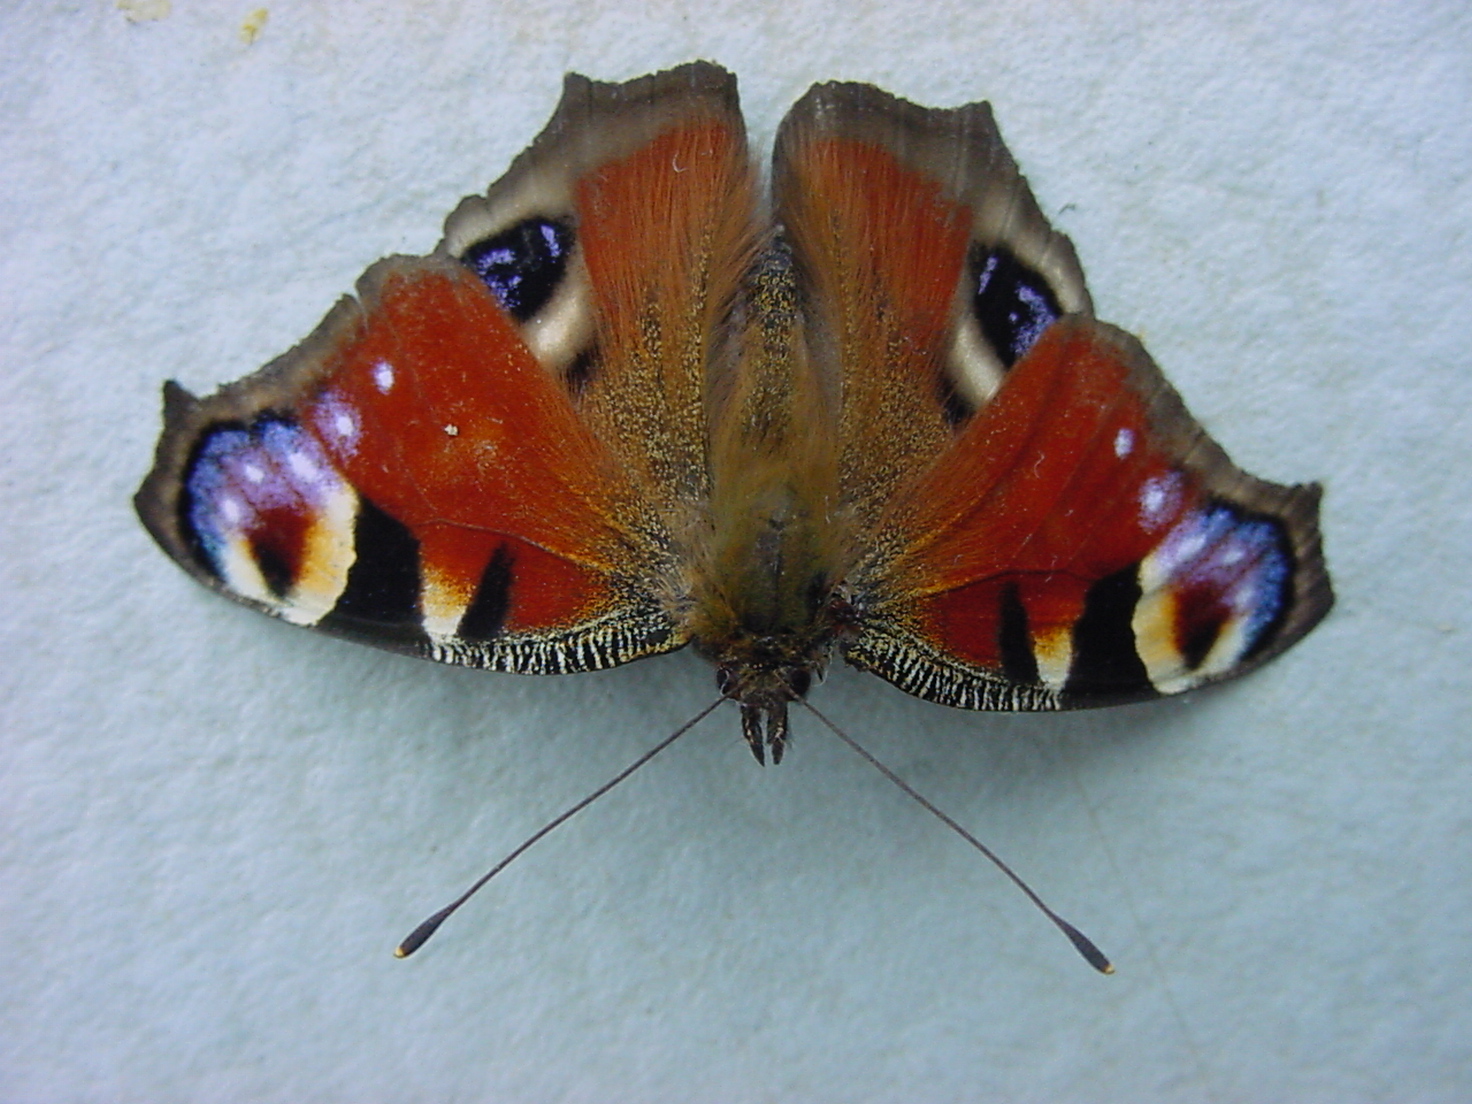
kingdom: Animalia
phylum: Arthropoda
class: Insecta
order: Lepidoptera
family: Nymphalidae
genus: Aglais
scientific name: Aglais io
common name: Peacock
